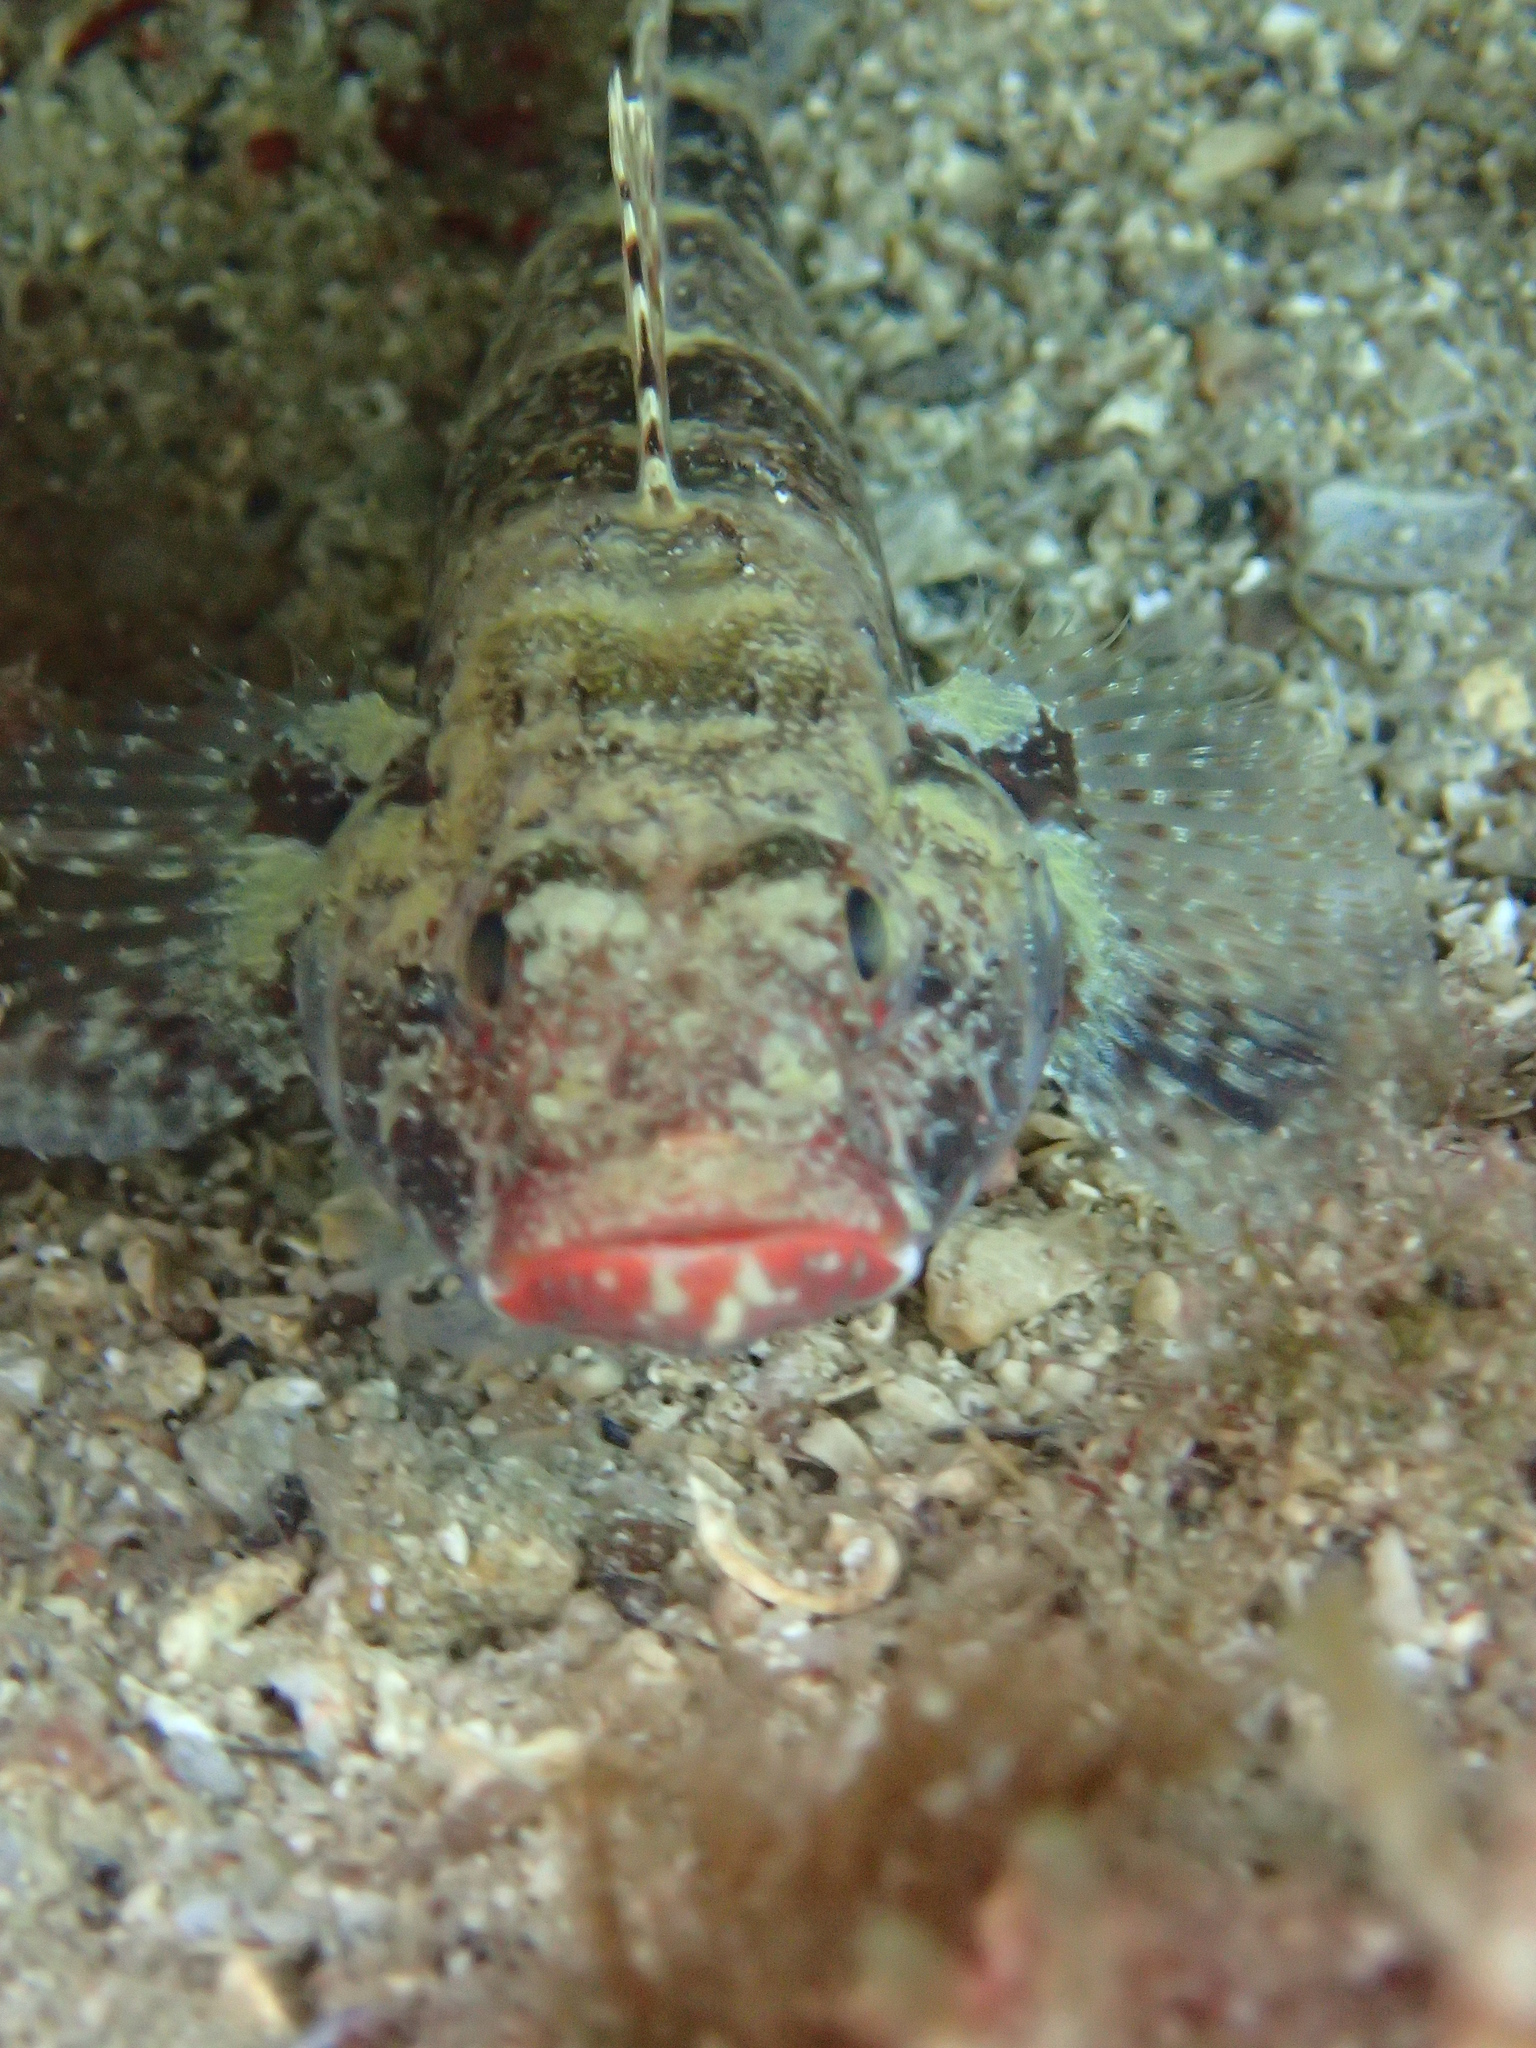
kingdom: Animalia
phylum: Chordata
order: Perciformes
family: Gobiidae
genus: Gobius
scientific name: Gobius cruentatus
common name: Red-mouthed goby
